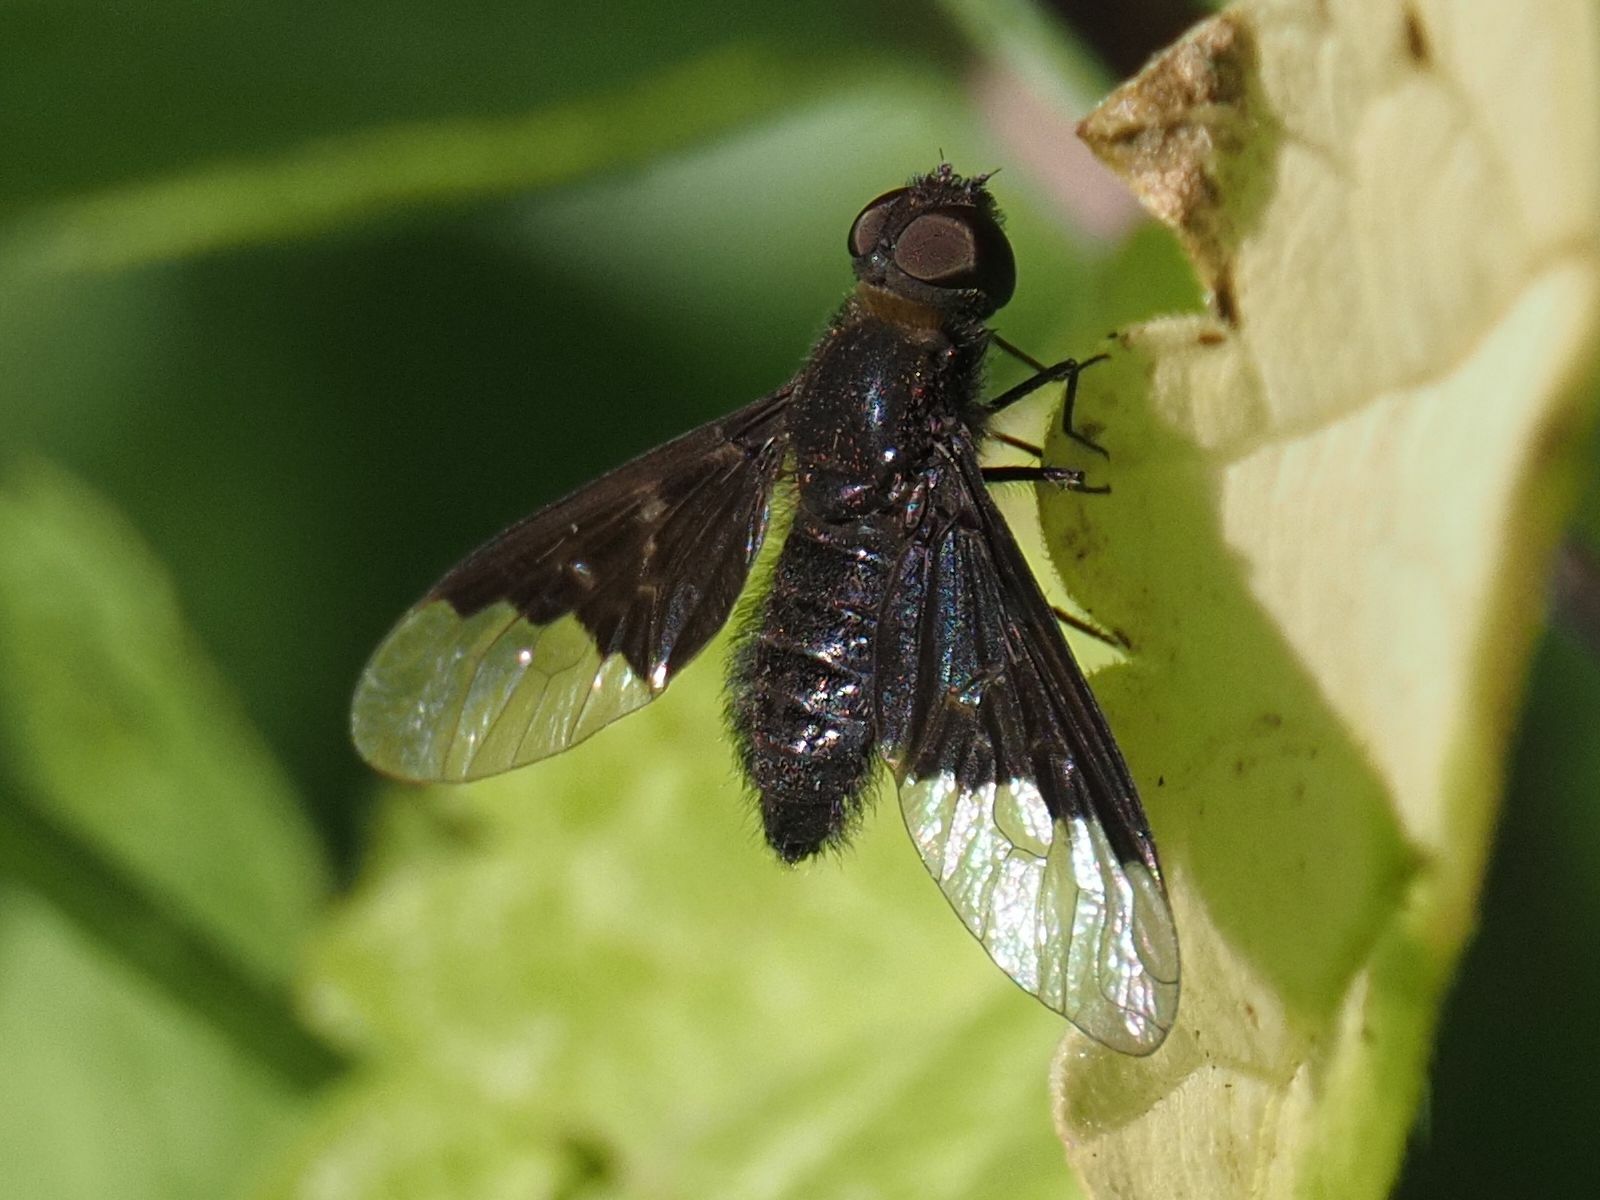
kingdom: Animalia
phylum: Arthropoda
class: Insecta
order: Diptera
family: Bombyliidae
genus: Hemipenthes
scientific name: Hemipenthes morio
